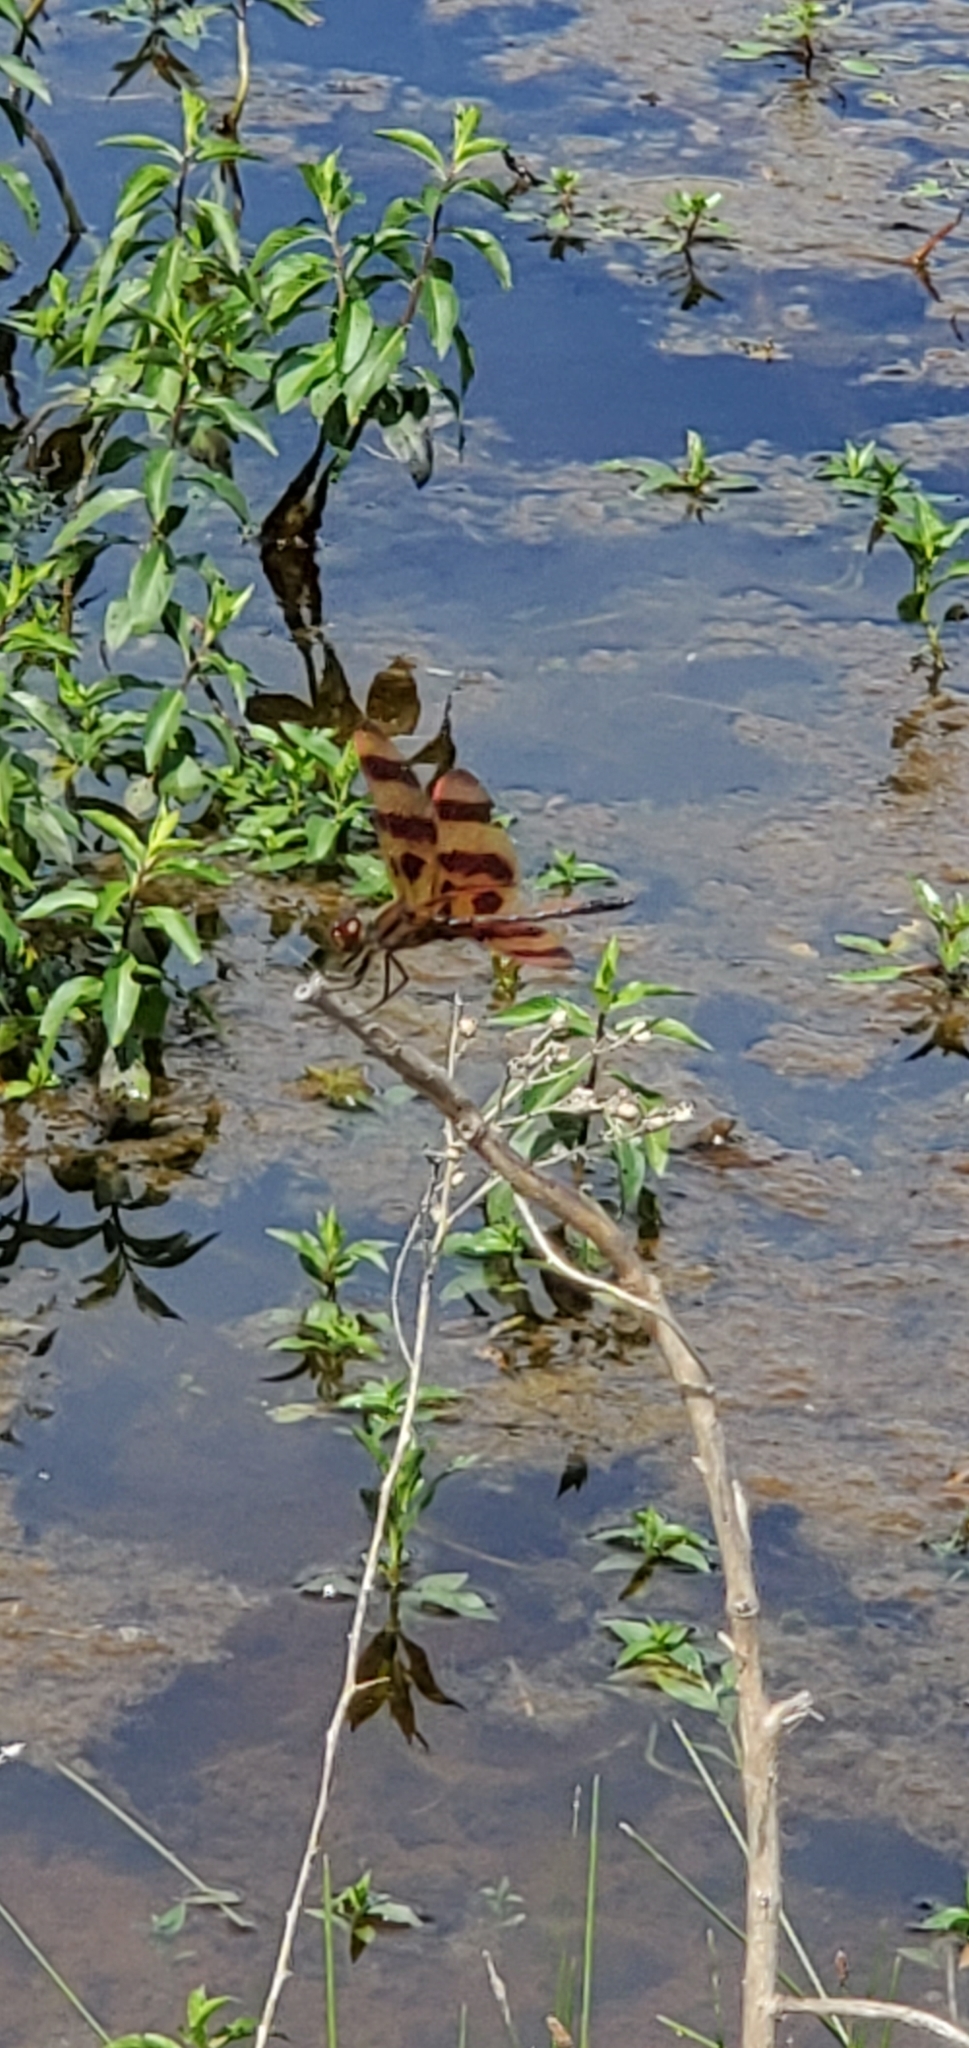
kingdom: Animalia
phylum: Arthropoda
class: Insecta
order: Odonata
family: Libellulidae
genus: Celithemis
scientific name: Celithemis eponina
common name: Halloween pennant
